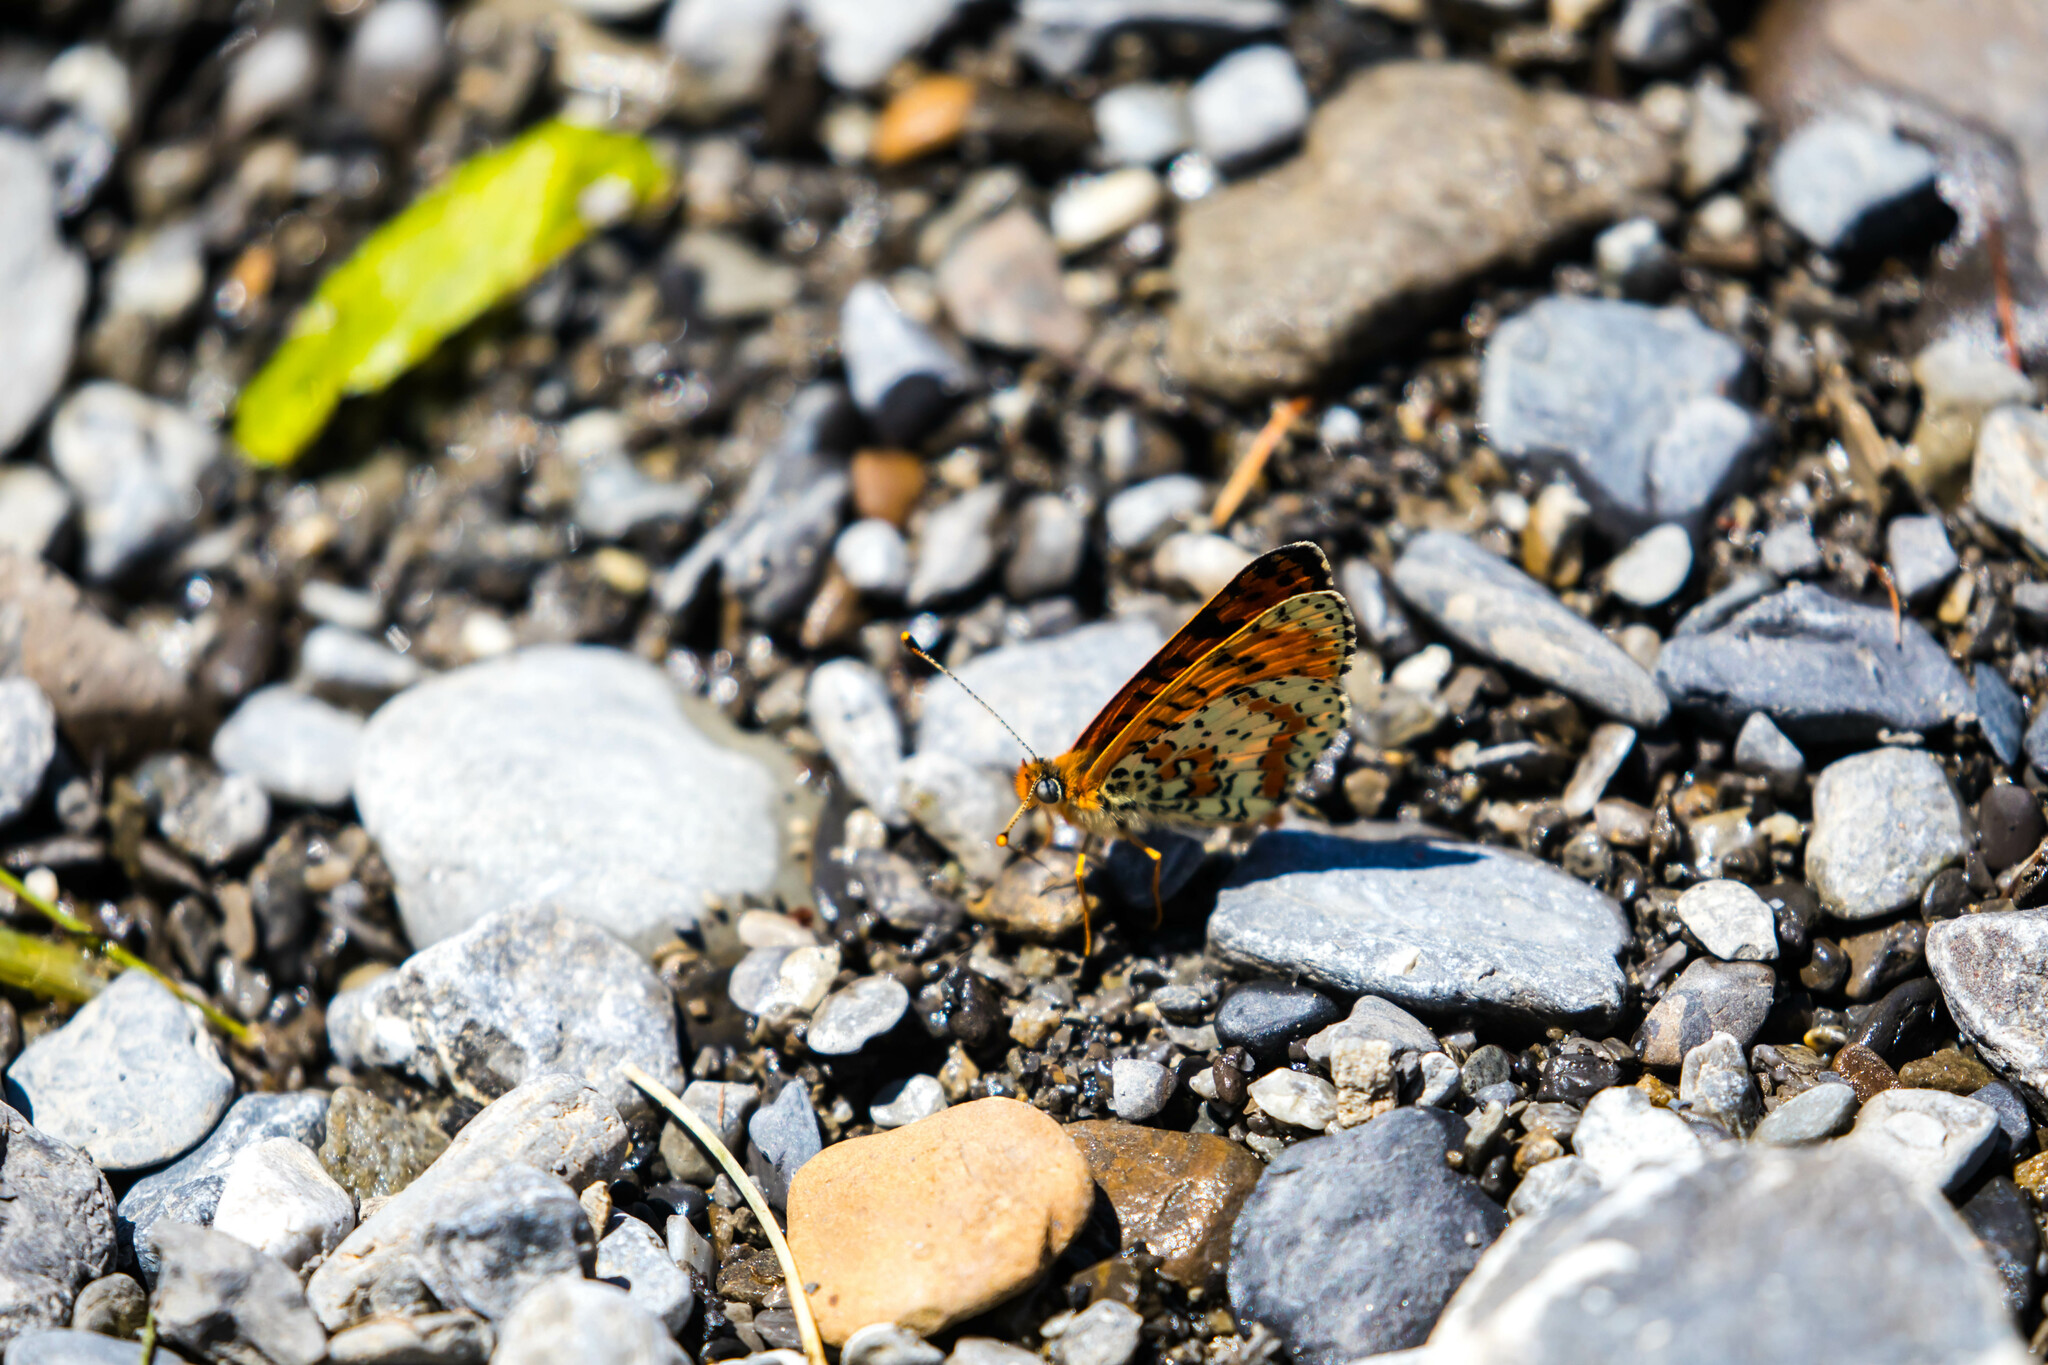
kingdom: Animalia
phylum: Arthropoda
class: Insecta
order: Lepidoptera
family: Nymphalidae
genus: Melitaea
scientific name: Melitaea didyma
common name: Spotted fritillary
